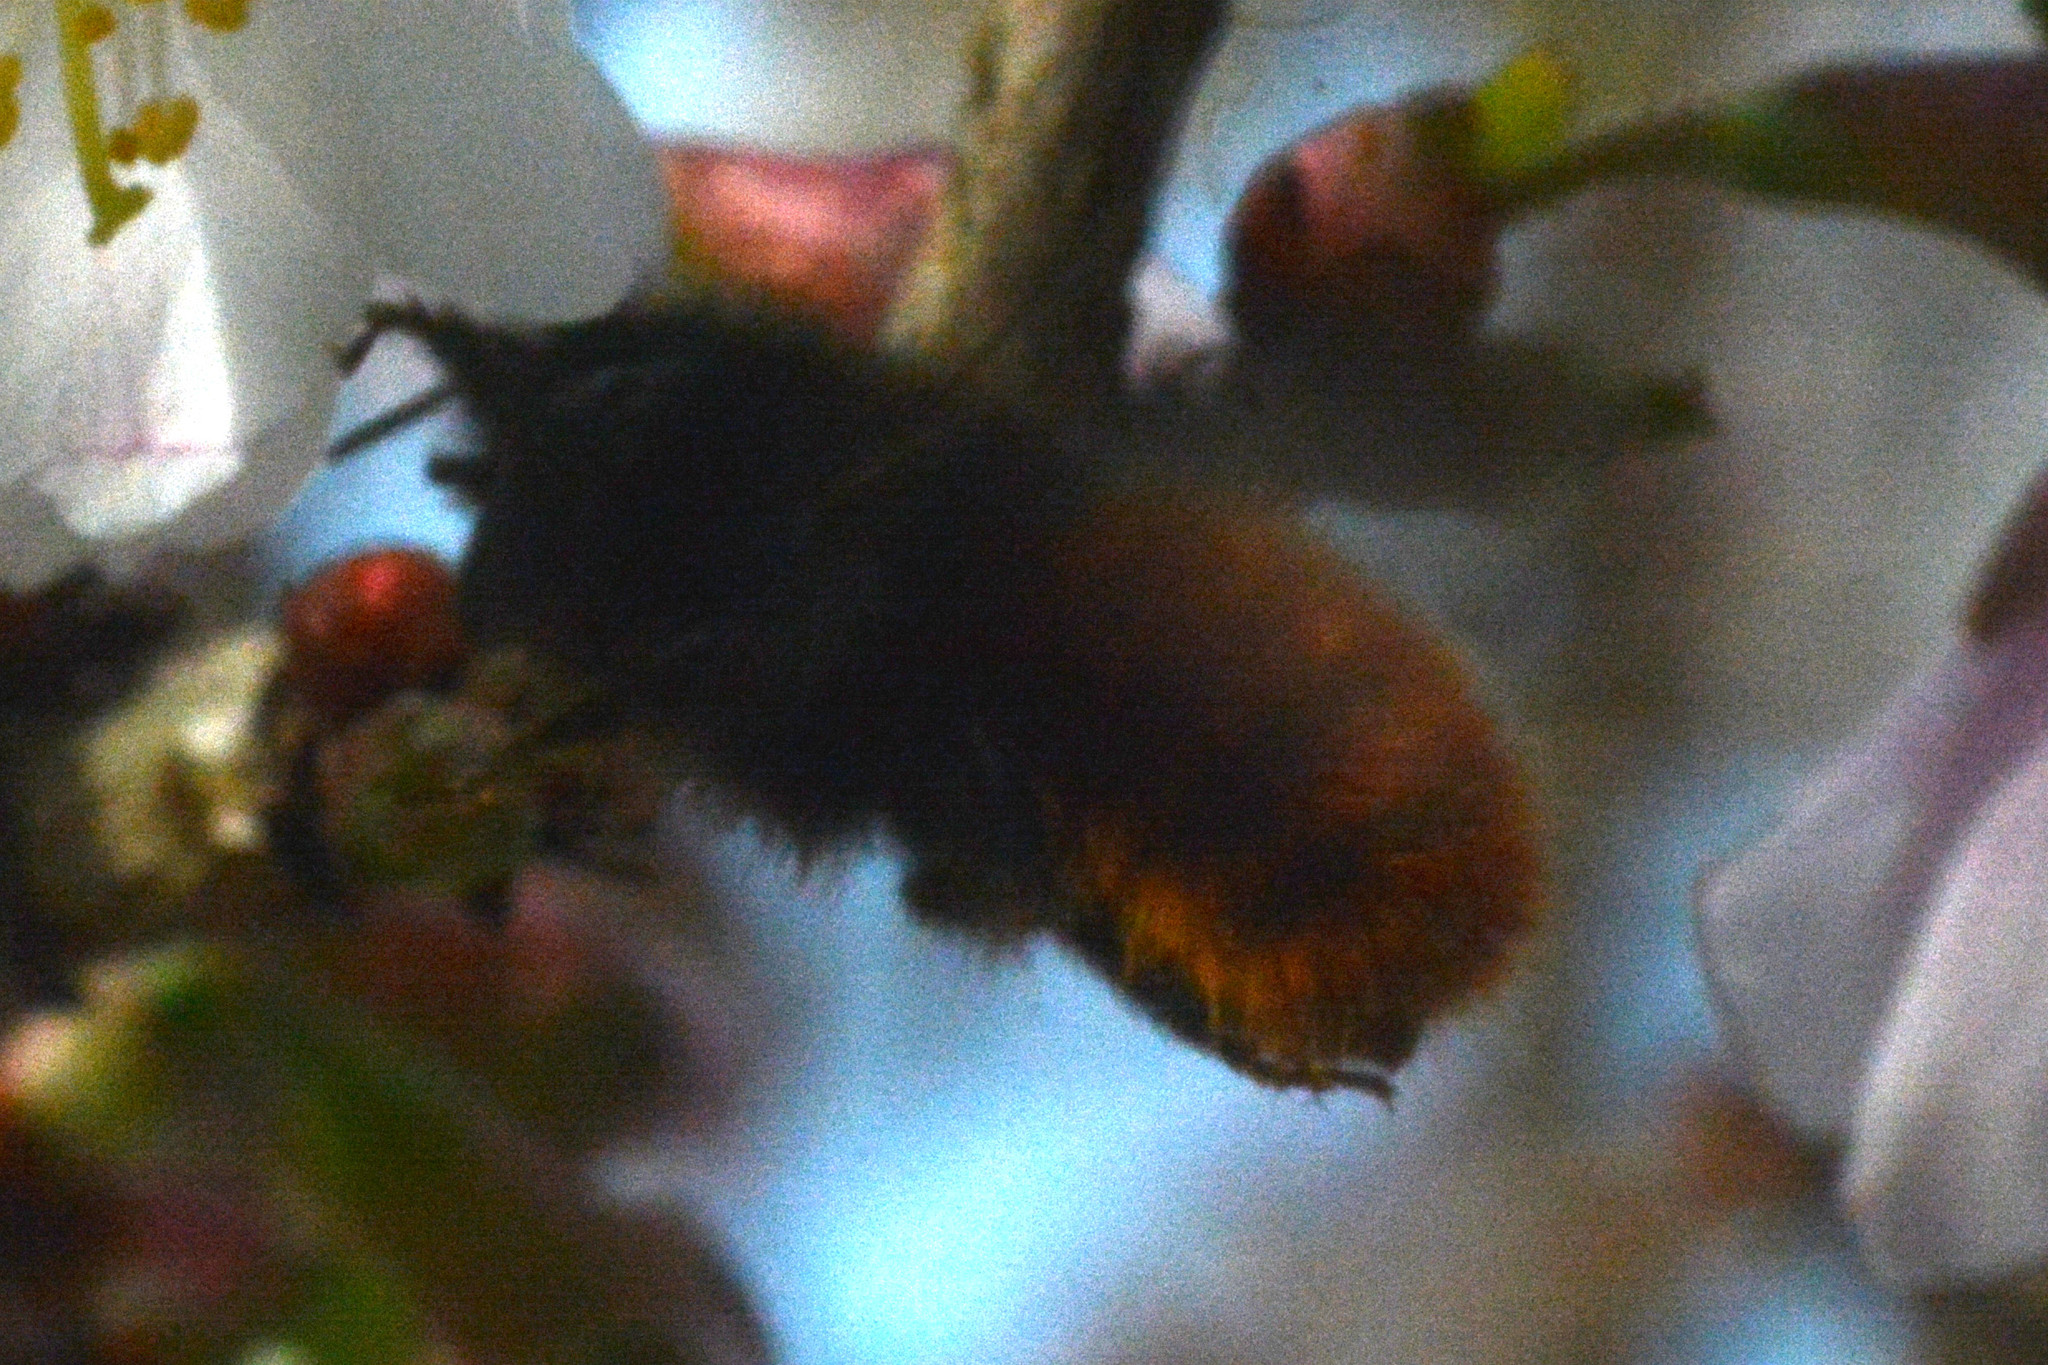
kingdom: Animalia
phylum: Arthropoda
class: Insecta
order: Hymenoptera
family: Megachilidae
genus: Osmia
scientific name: Osmia cornuta
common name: Mason bee
